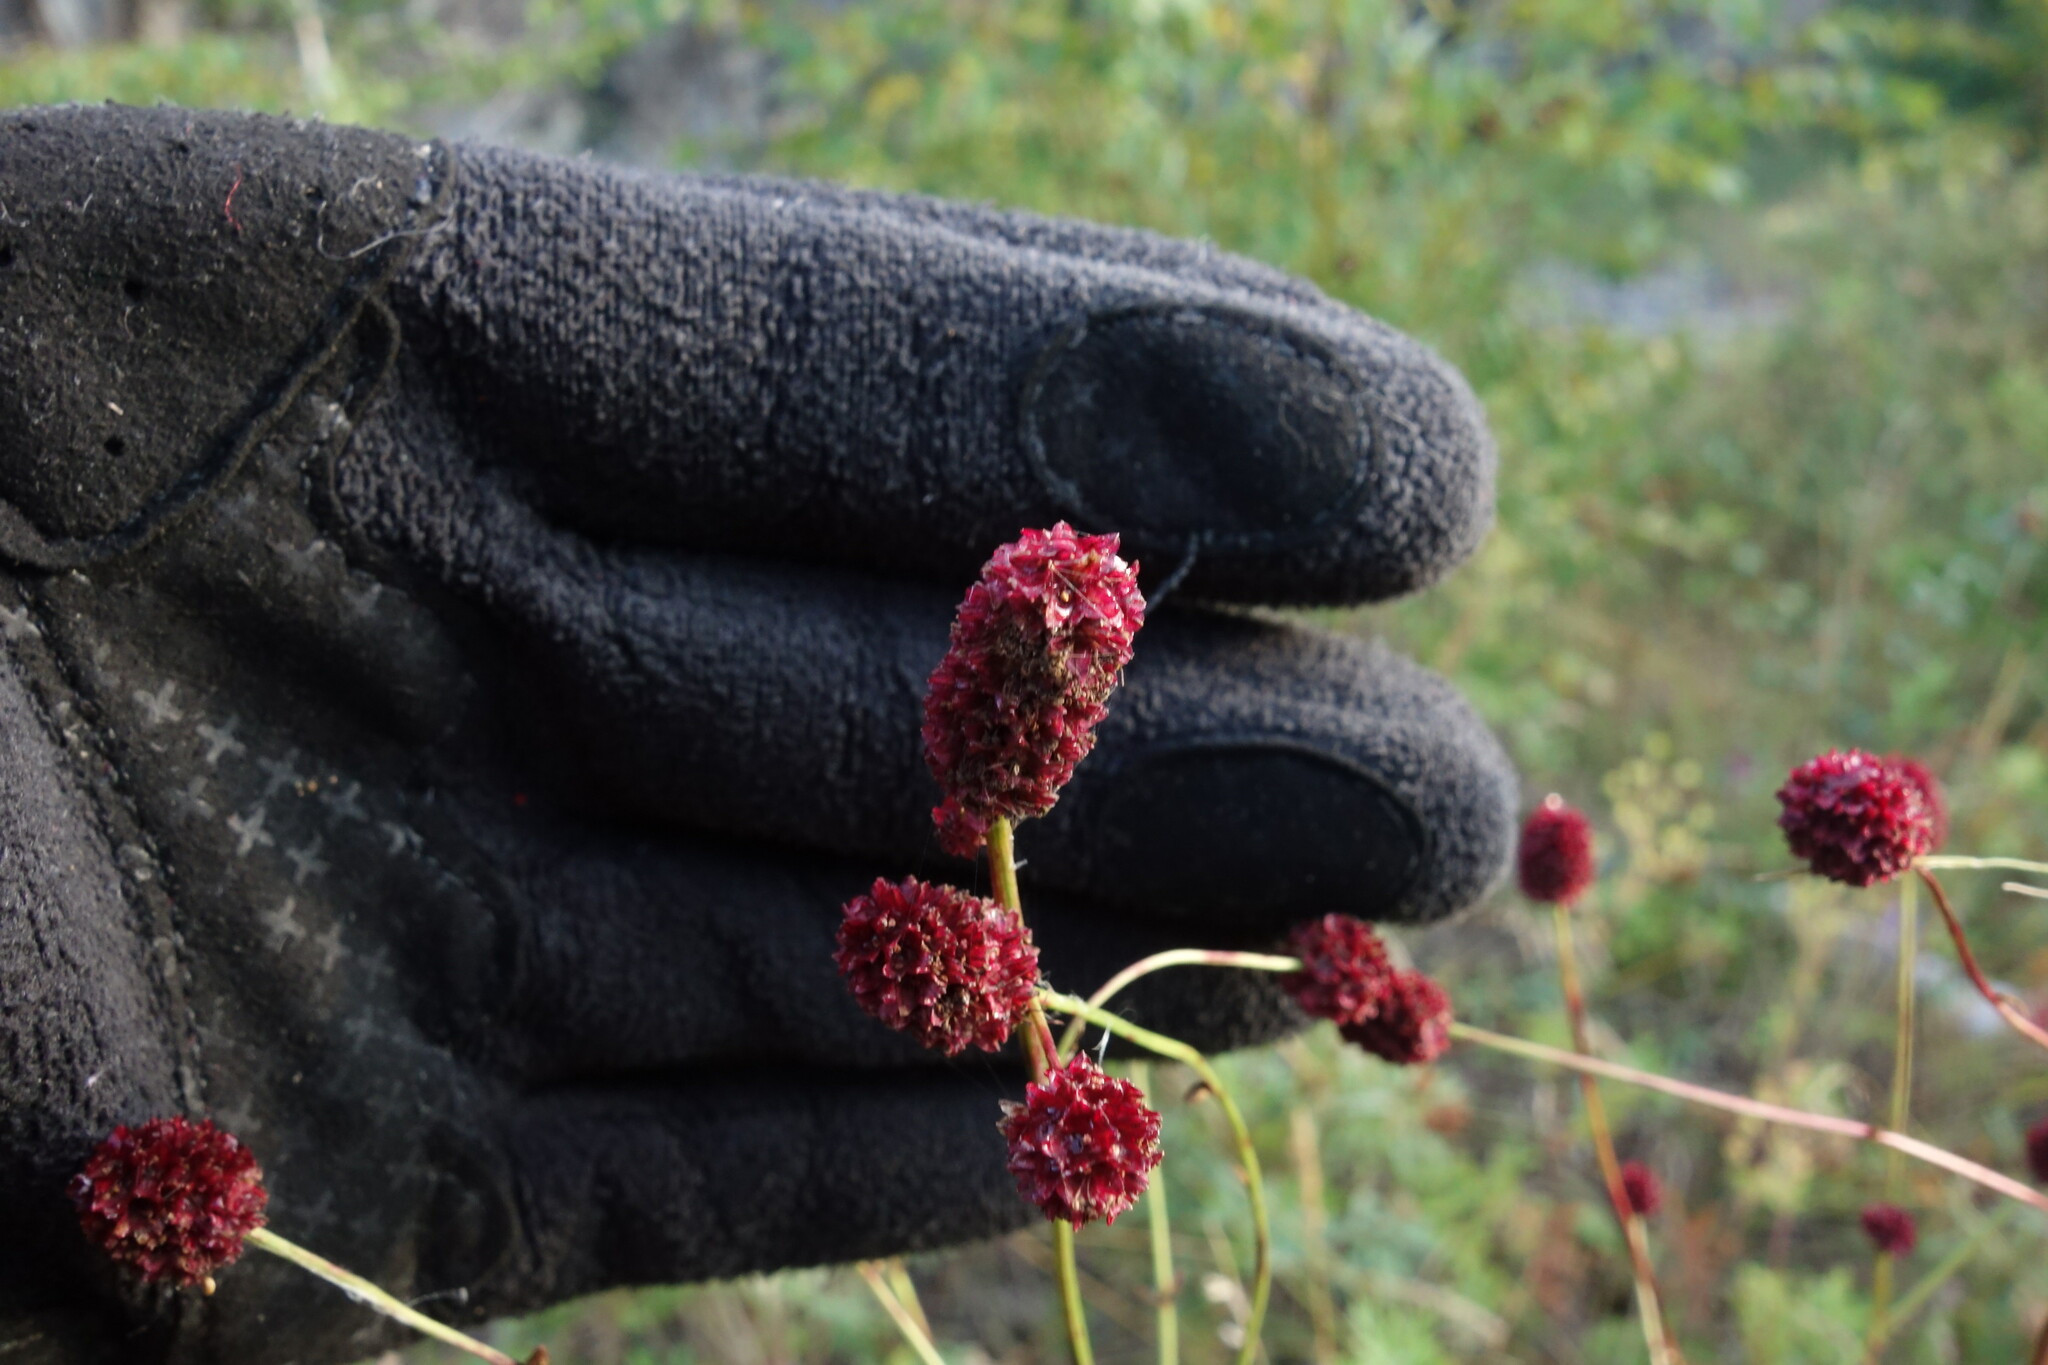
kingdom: Plantae
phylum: Tracheophyta
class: Magnoliopsida
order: Rosales
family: Rosaceae
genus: Sanguisorba
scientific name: Sanguisorba officinalis
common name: Great burnet
